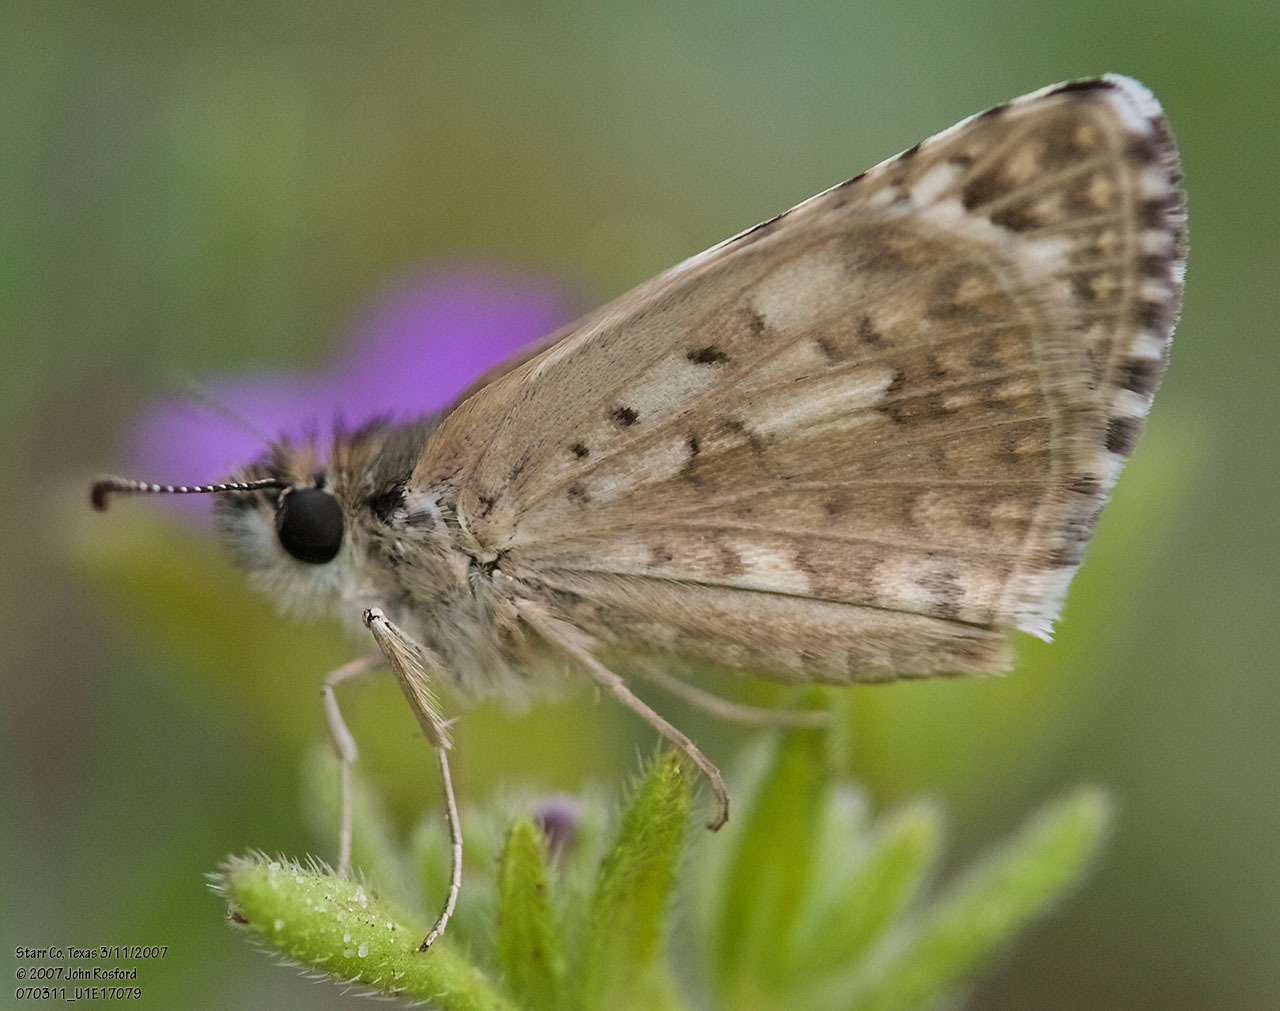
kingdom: Animalia
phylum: Arthropoda
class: Insecta
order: Lepidoptera
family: Hesperiidae
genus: Burnsius
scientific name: Burnsius philetas
